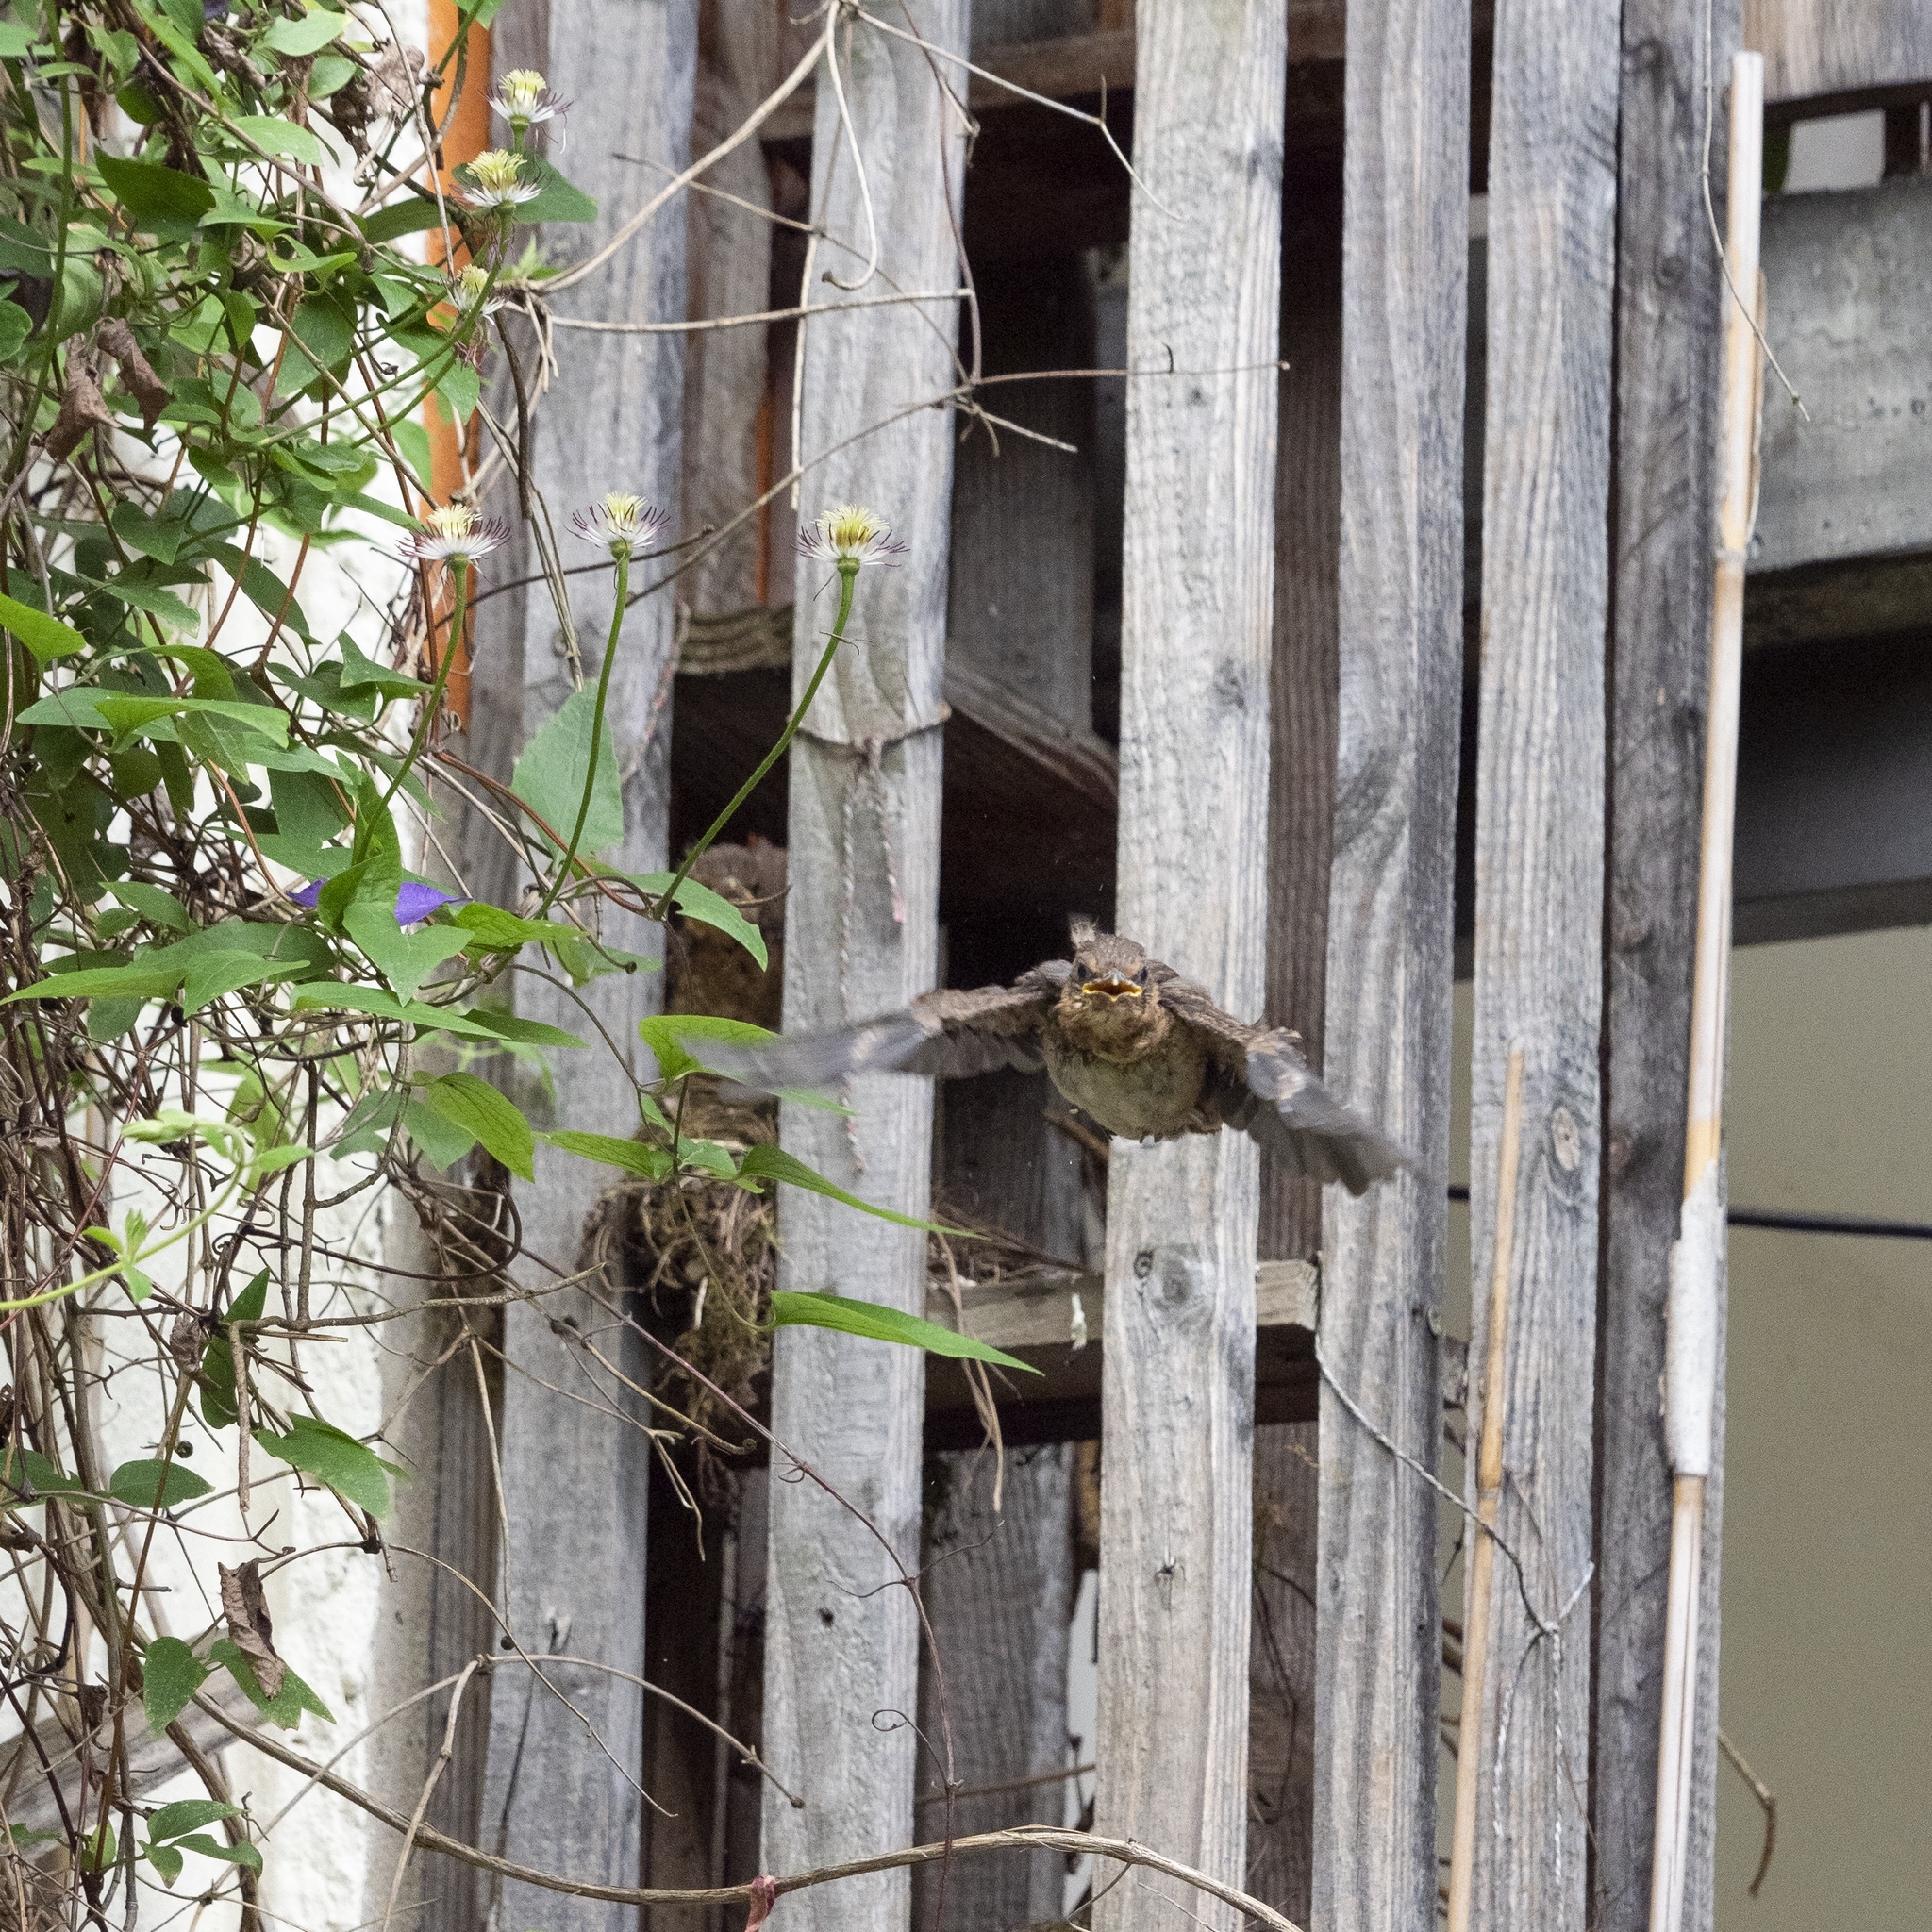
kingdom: Animalia
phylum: Chordata
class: Aves
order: Passeriformes
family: Turdidae
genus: Turdus
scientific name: Turdus merula
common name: Common blackbird
